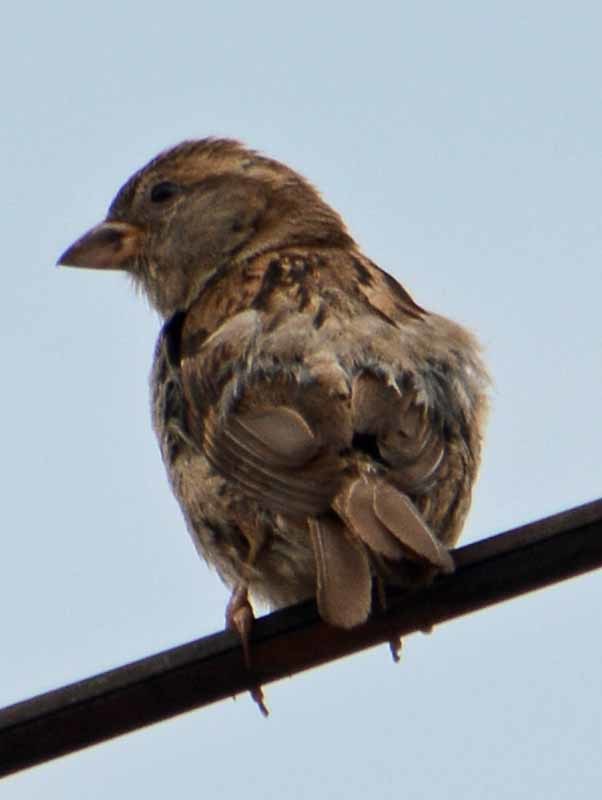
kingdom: Animalia
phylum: Chordata
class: Aves
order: Passeriformes
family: Passeridae
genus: Passer
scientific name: Passer domesticus
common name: House sparrow
